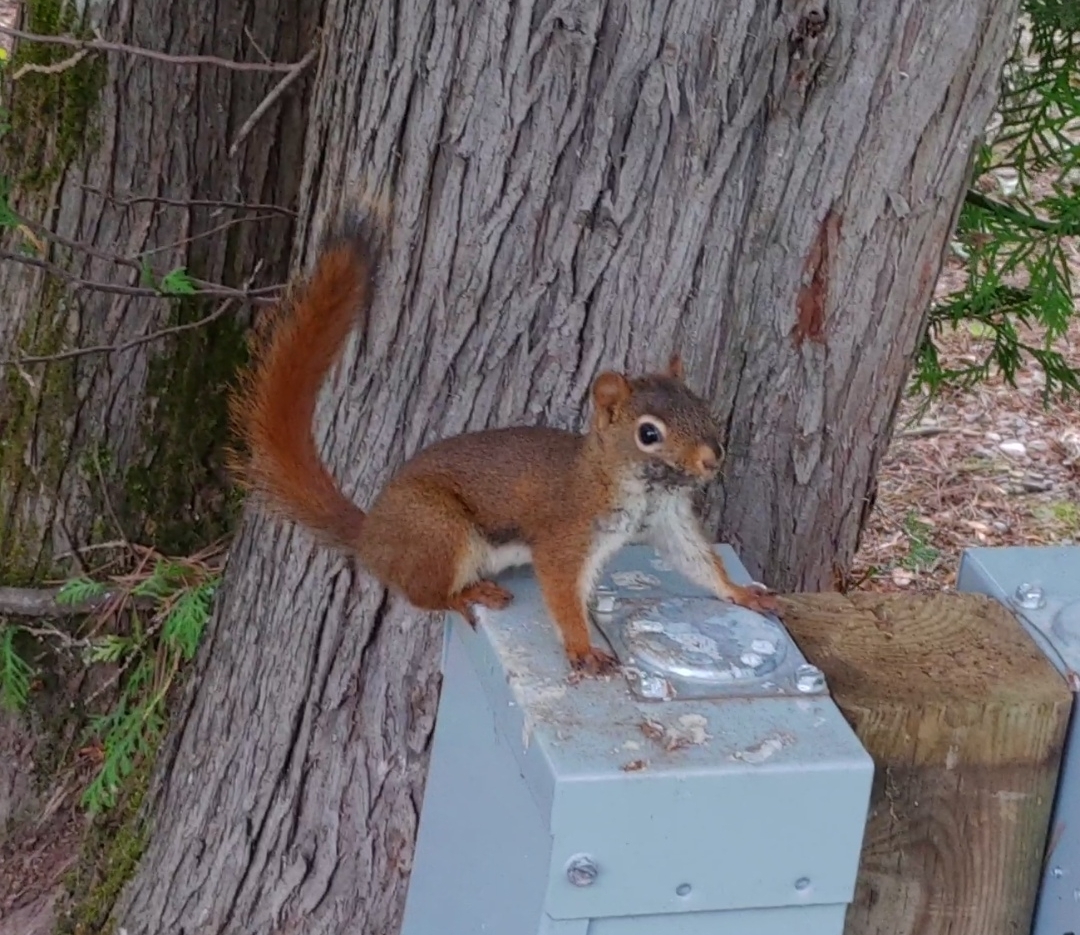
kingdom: Animalia
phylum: Chordata
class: Mammalia
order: Rodentia
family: Sciuridae
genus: Tamiasciurus
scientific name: Tamiasciurus hudsonicus
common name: Red squirrel
